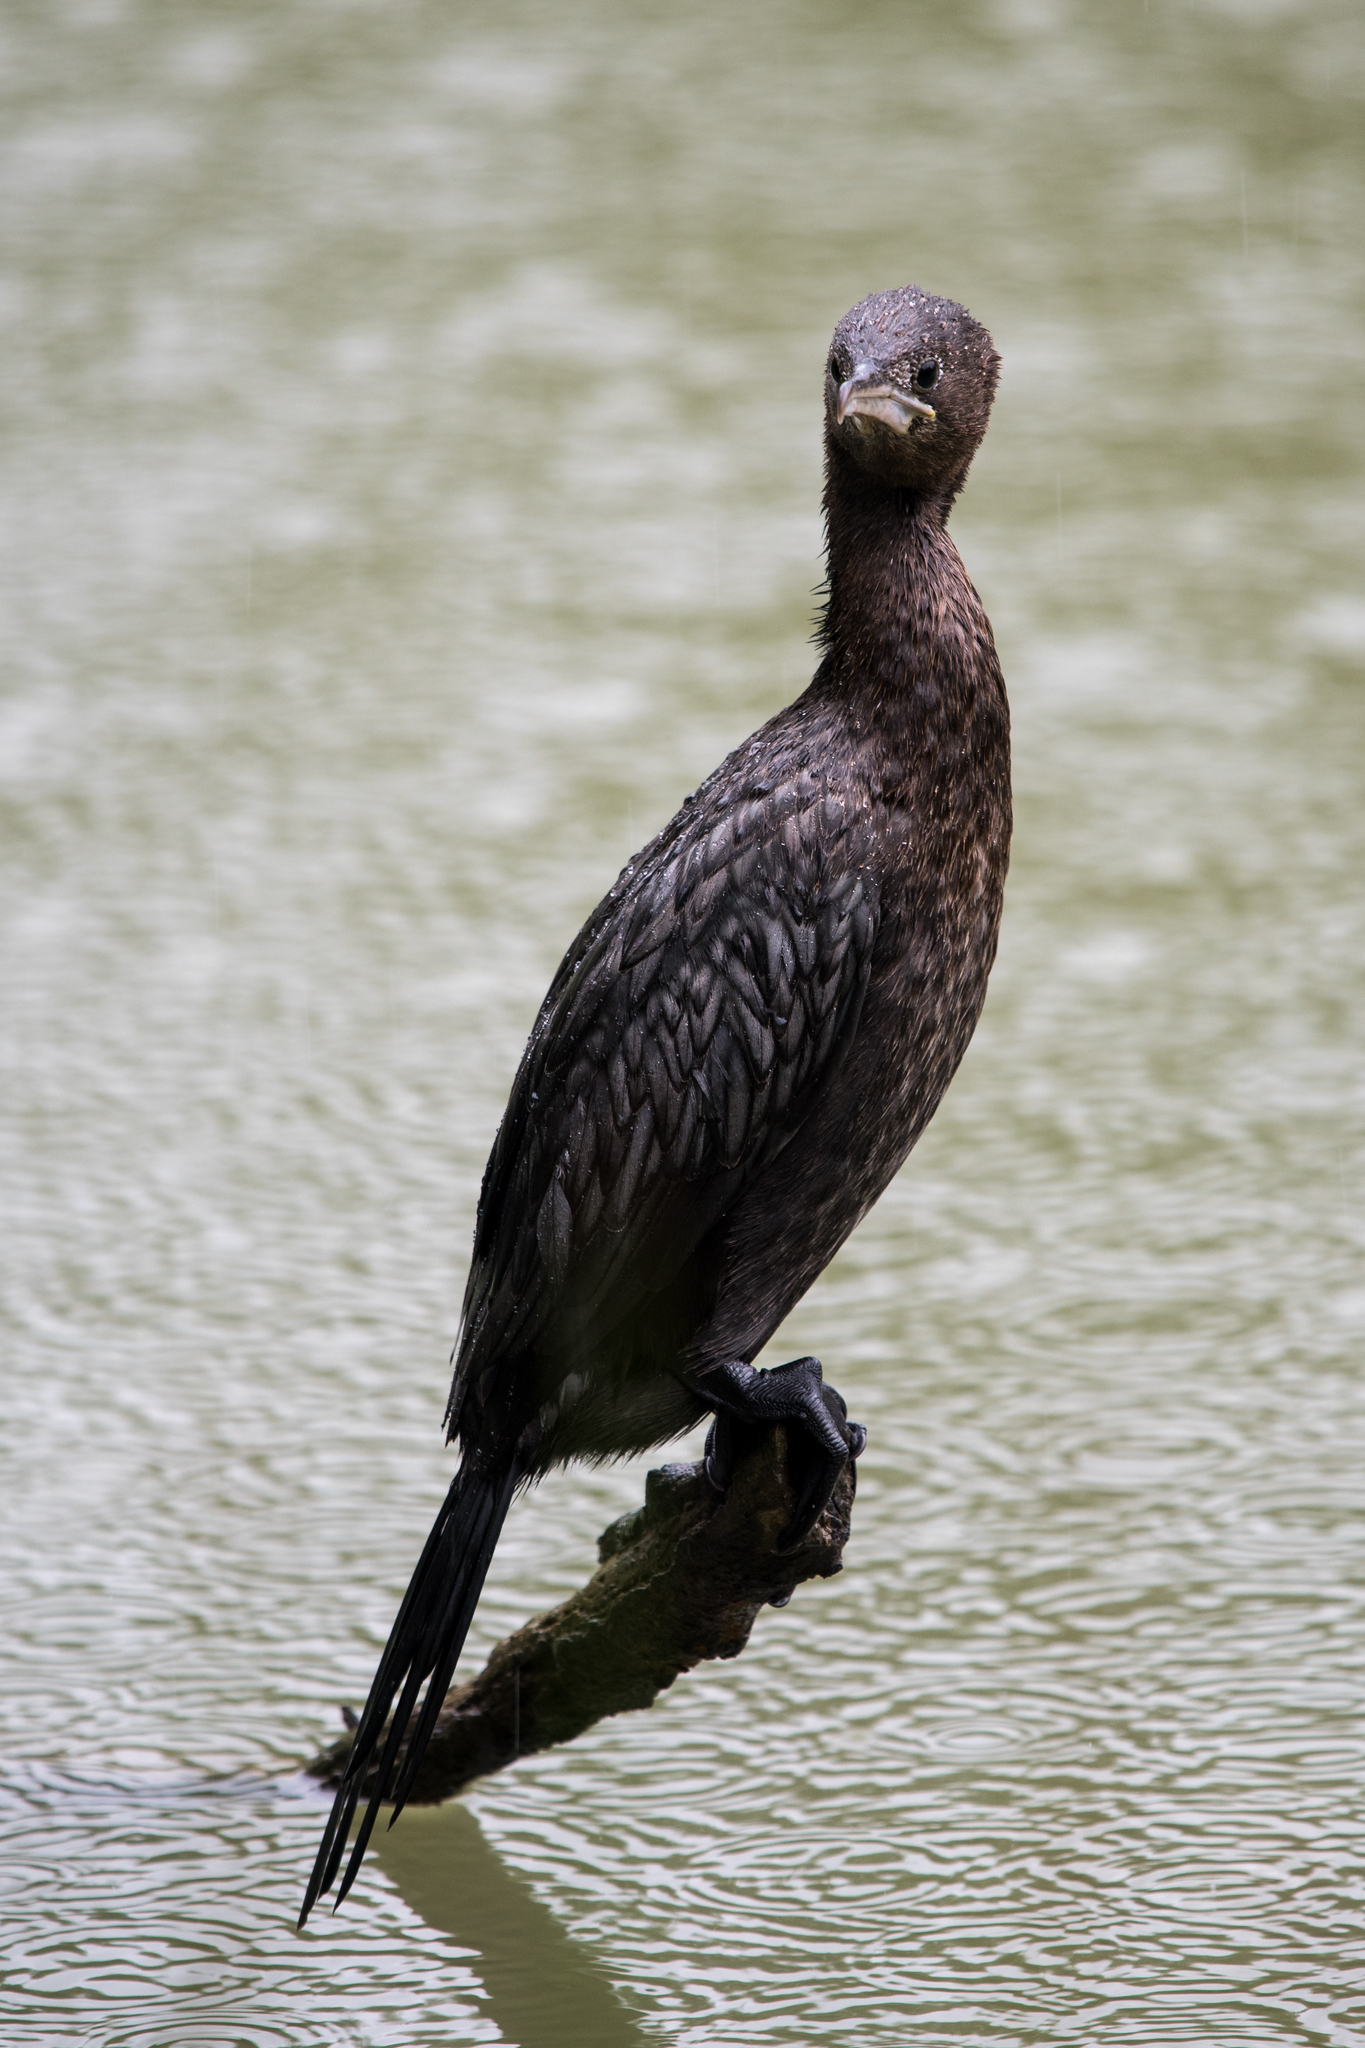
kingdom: Animalia
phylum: Chordata
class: Aves
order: Suliformes
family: Phalacrocoracidae
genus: Microcarbo
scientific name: Microcarbo pygmaeus
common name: Pygmy cormorant
